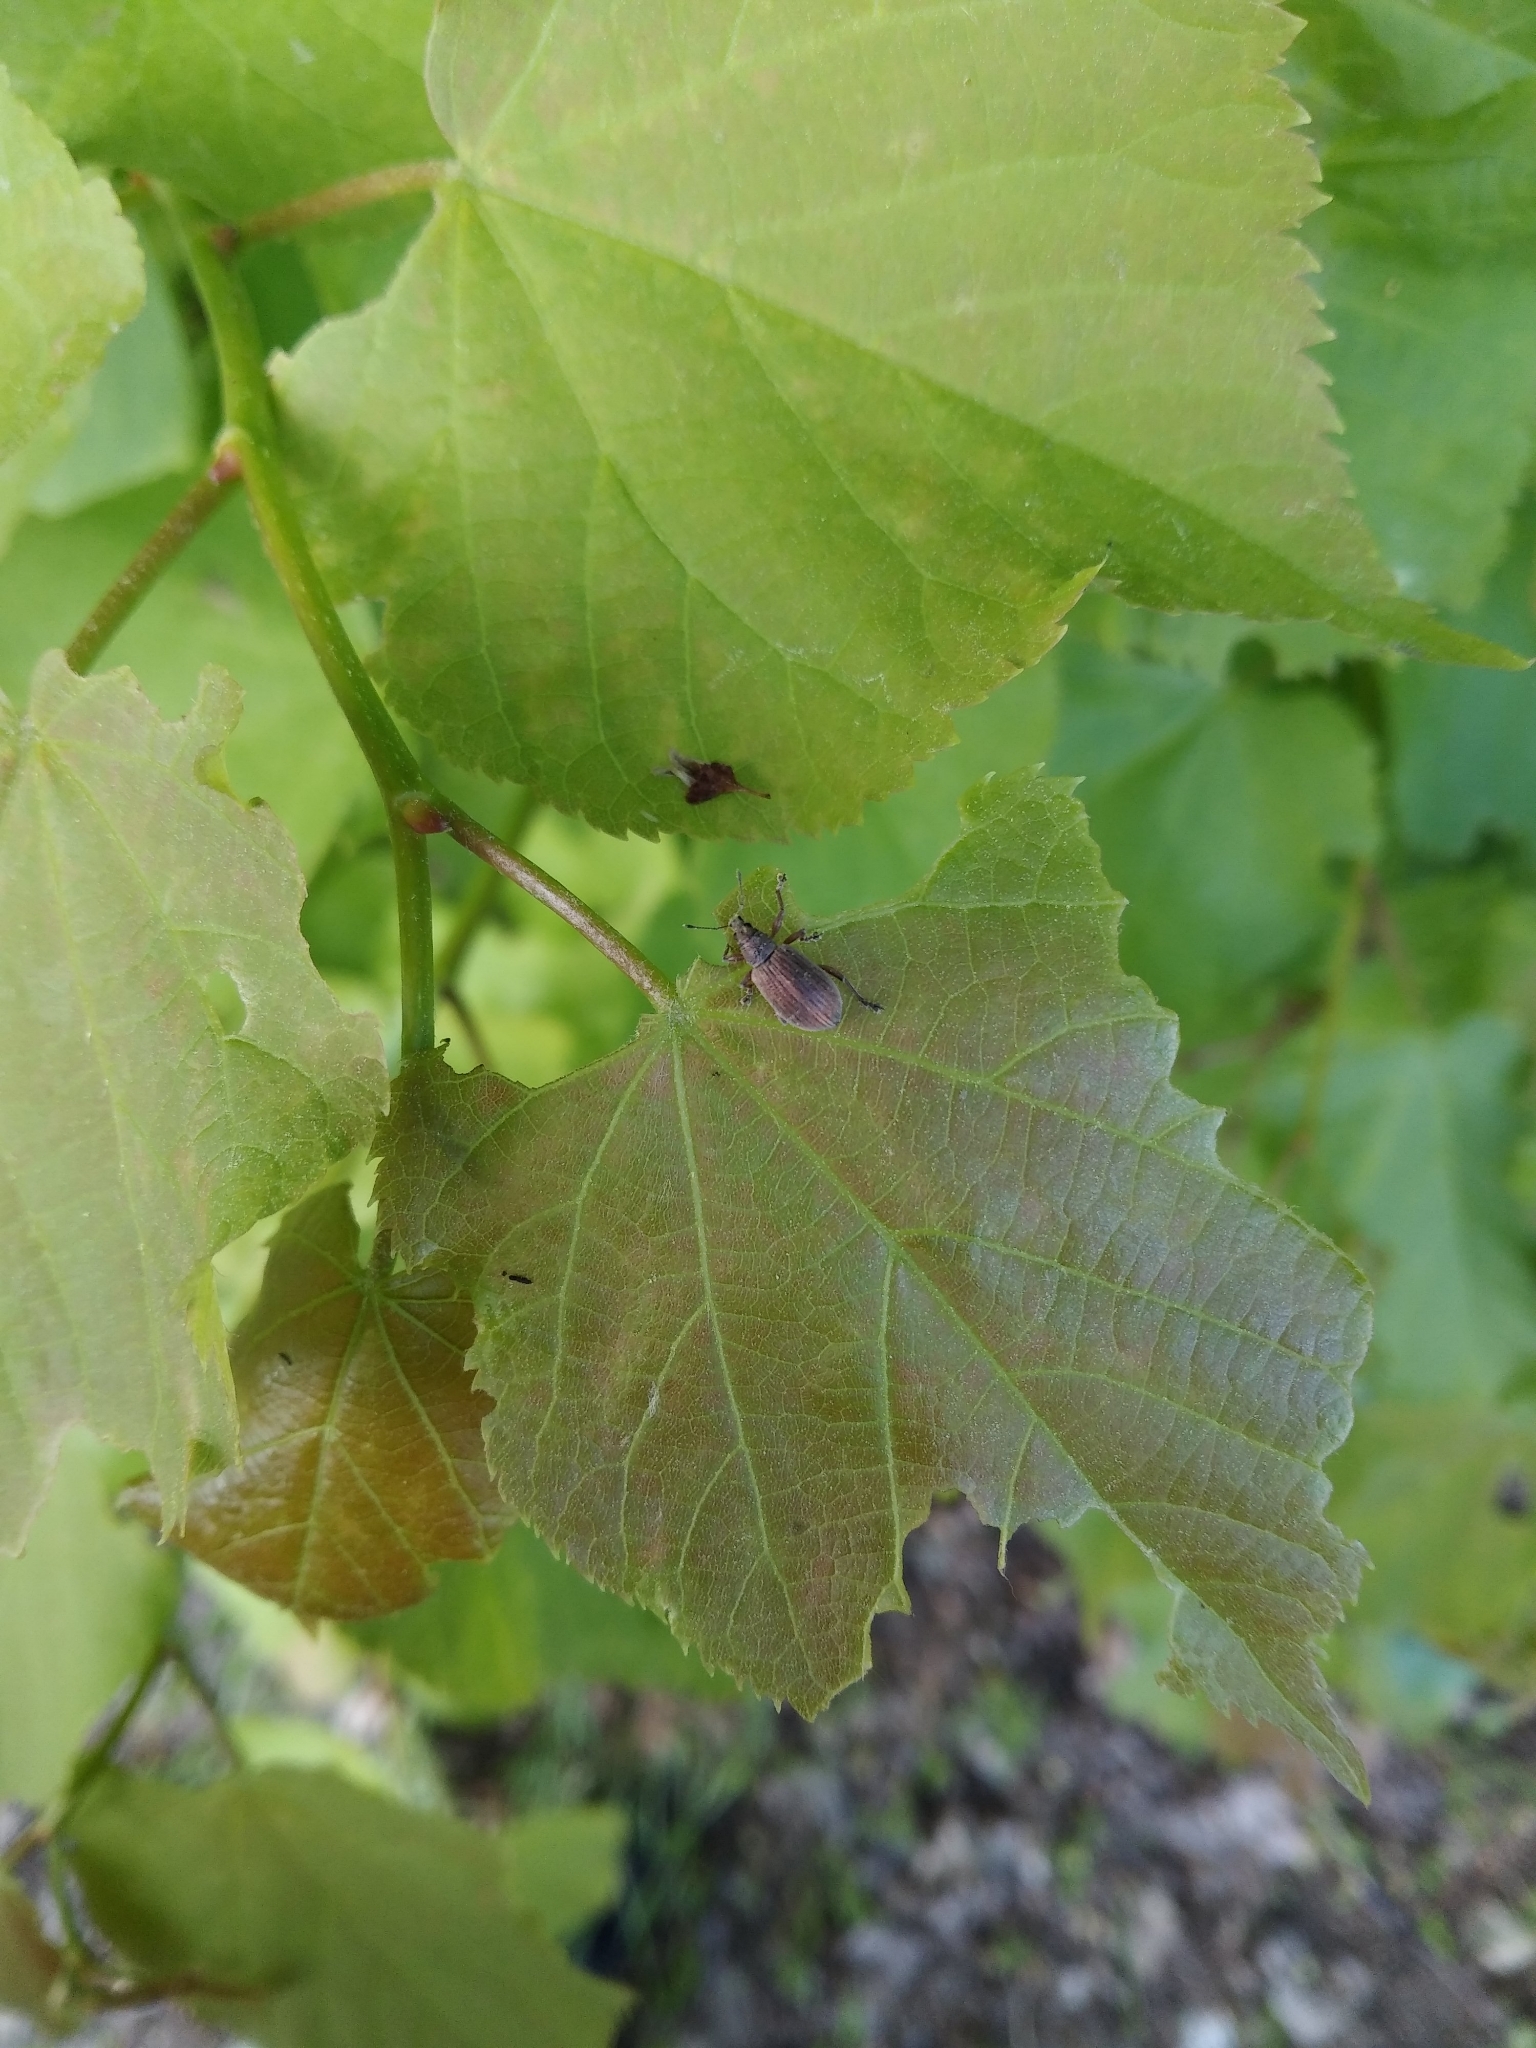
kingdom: Animalia
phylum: Arthropoda
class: Insecta
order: Coleoptera
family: Curculionidae
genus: Polydrusus
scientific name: Polydrusus mollis
